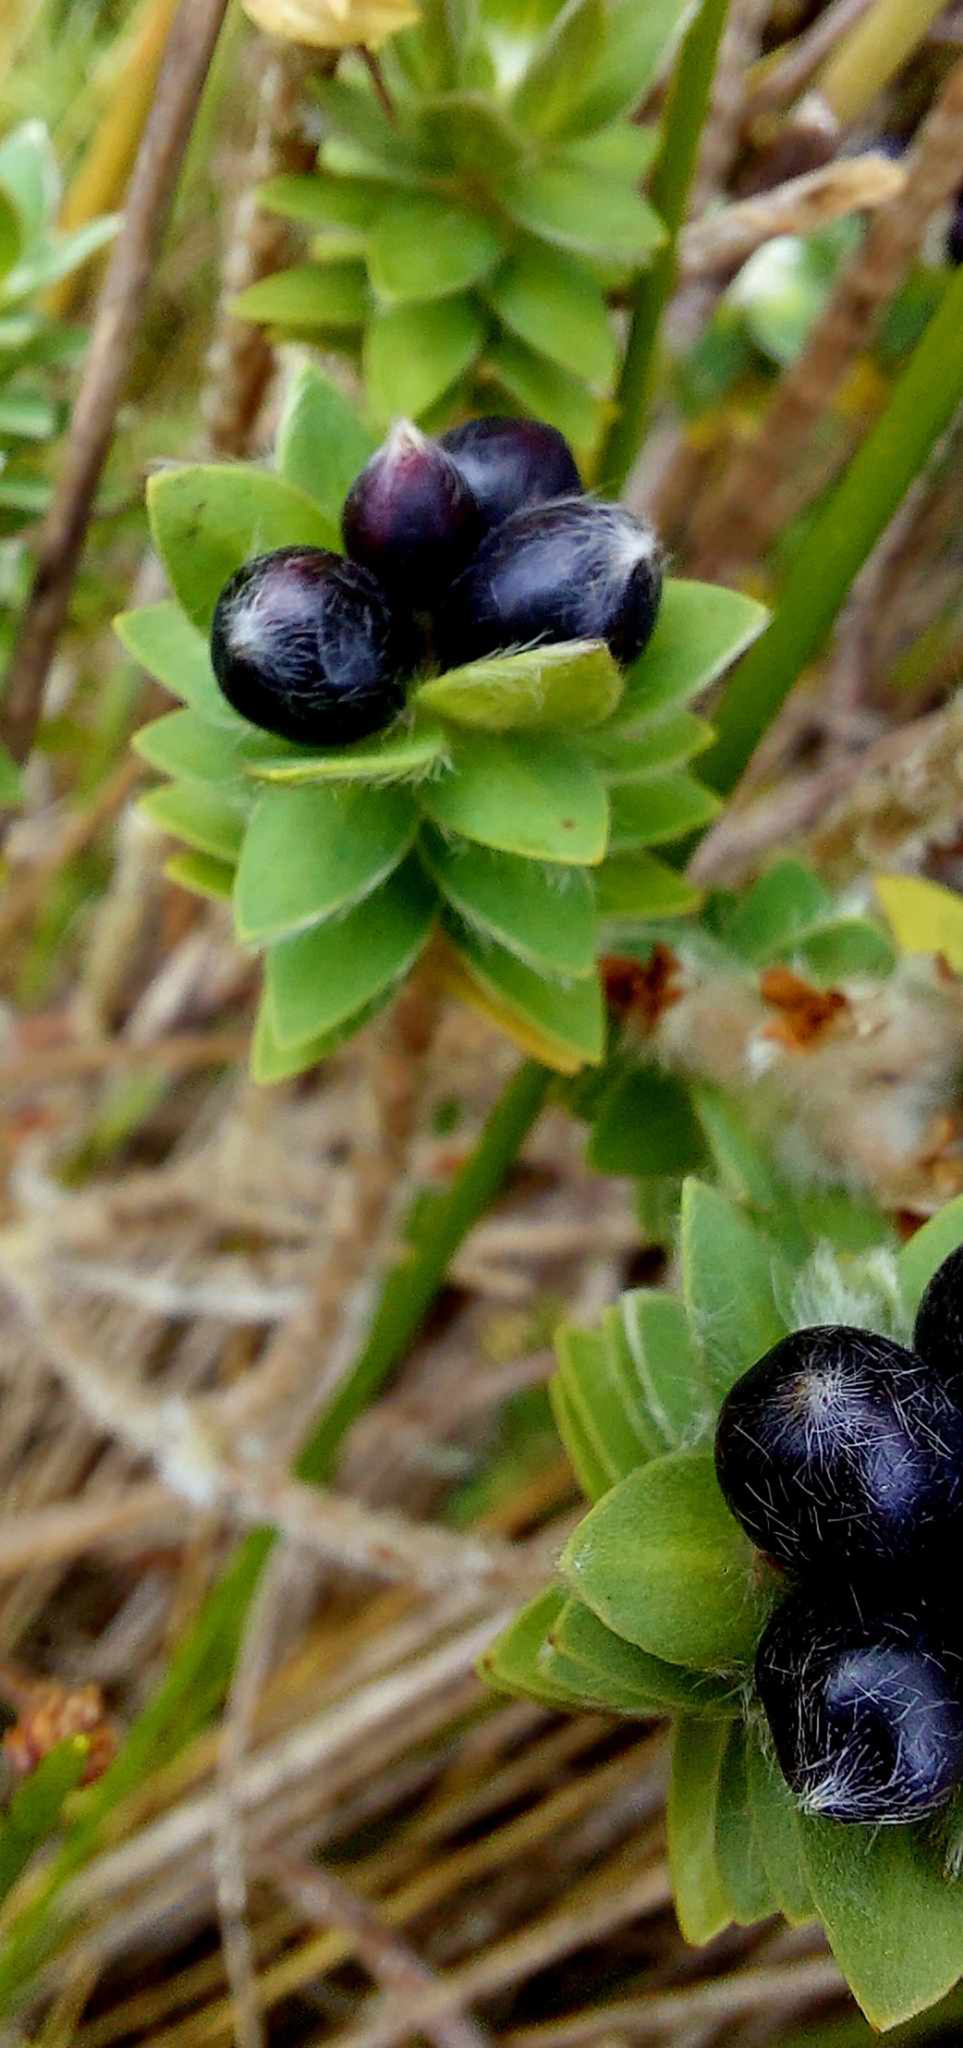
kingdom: Plantae
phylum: Tracheophyta
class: Magnoliopsida
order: Malvales
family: Thymelaeaceae
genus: Pimelea
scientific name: Pimelea villosa
